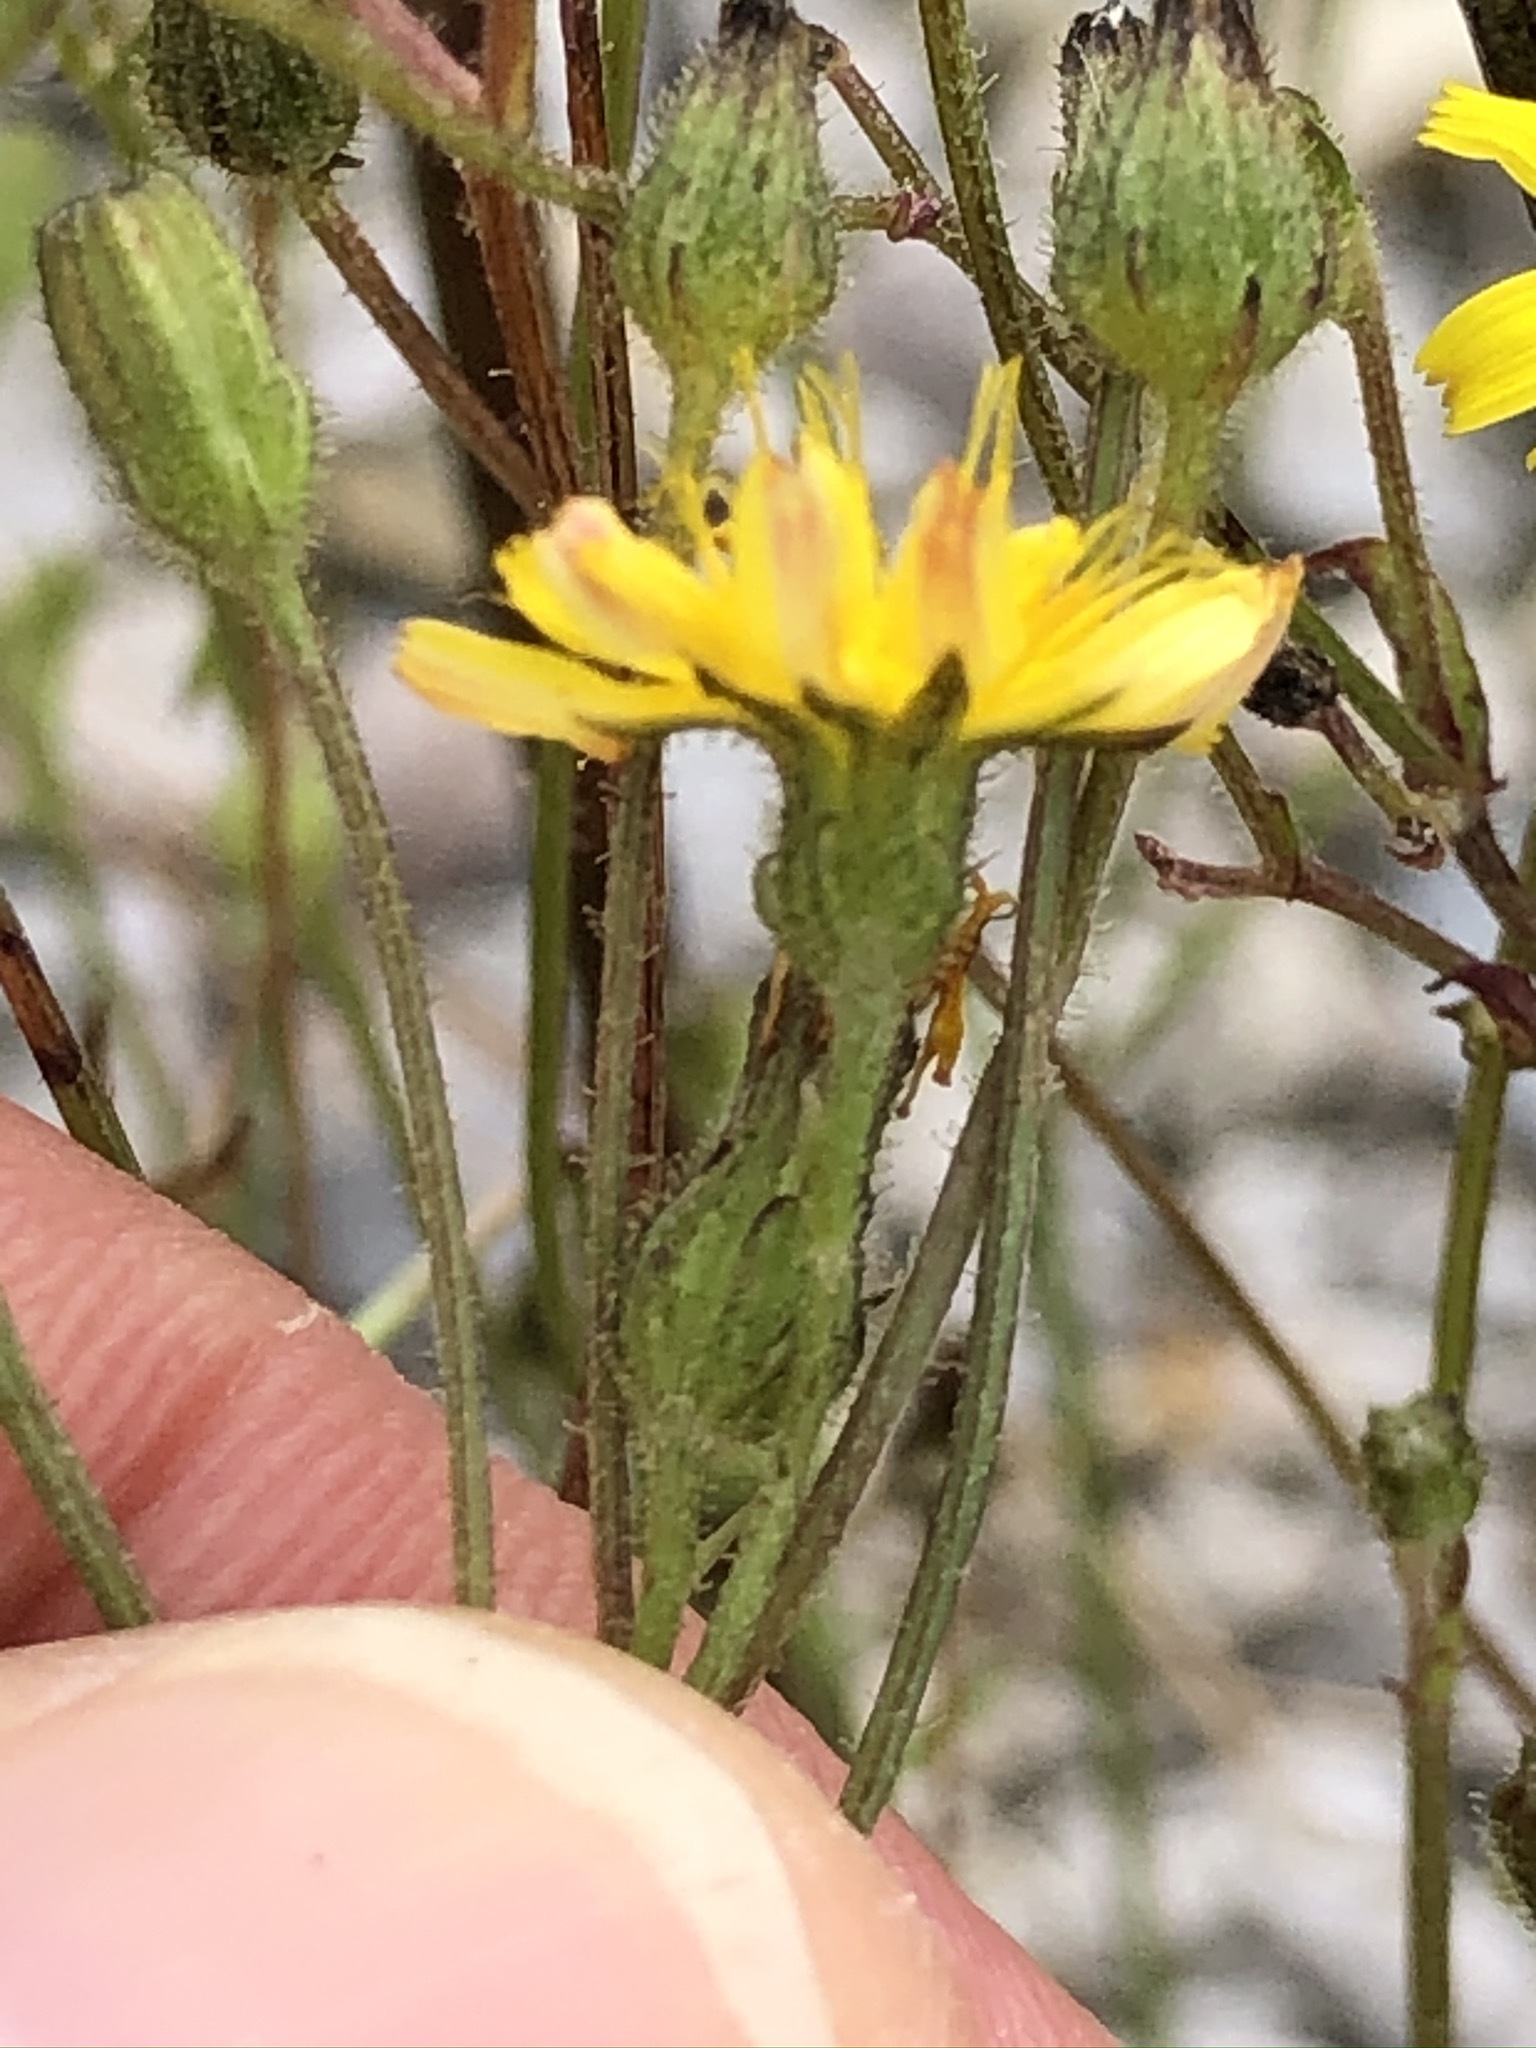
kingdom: Plantae
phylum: Tracheophyta
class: Magnoliopsida
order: Asterales
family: Asteraceae
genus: Crepis
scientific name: Crepis capillaris
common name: Smooth hawksbeard
